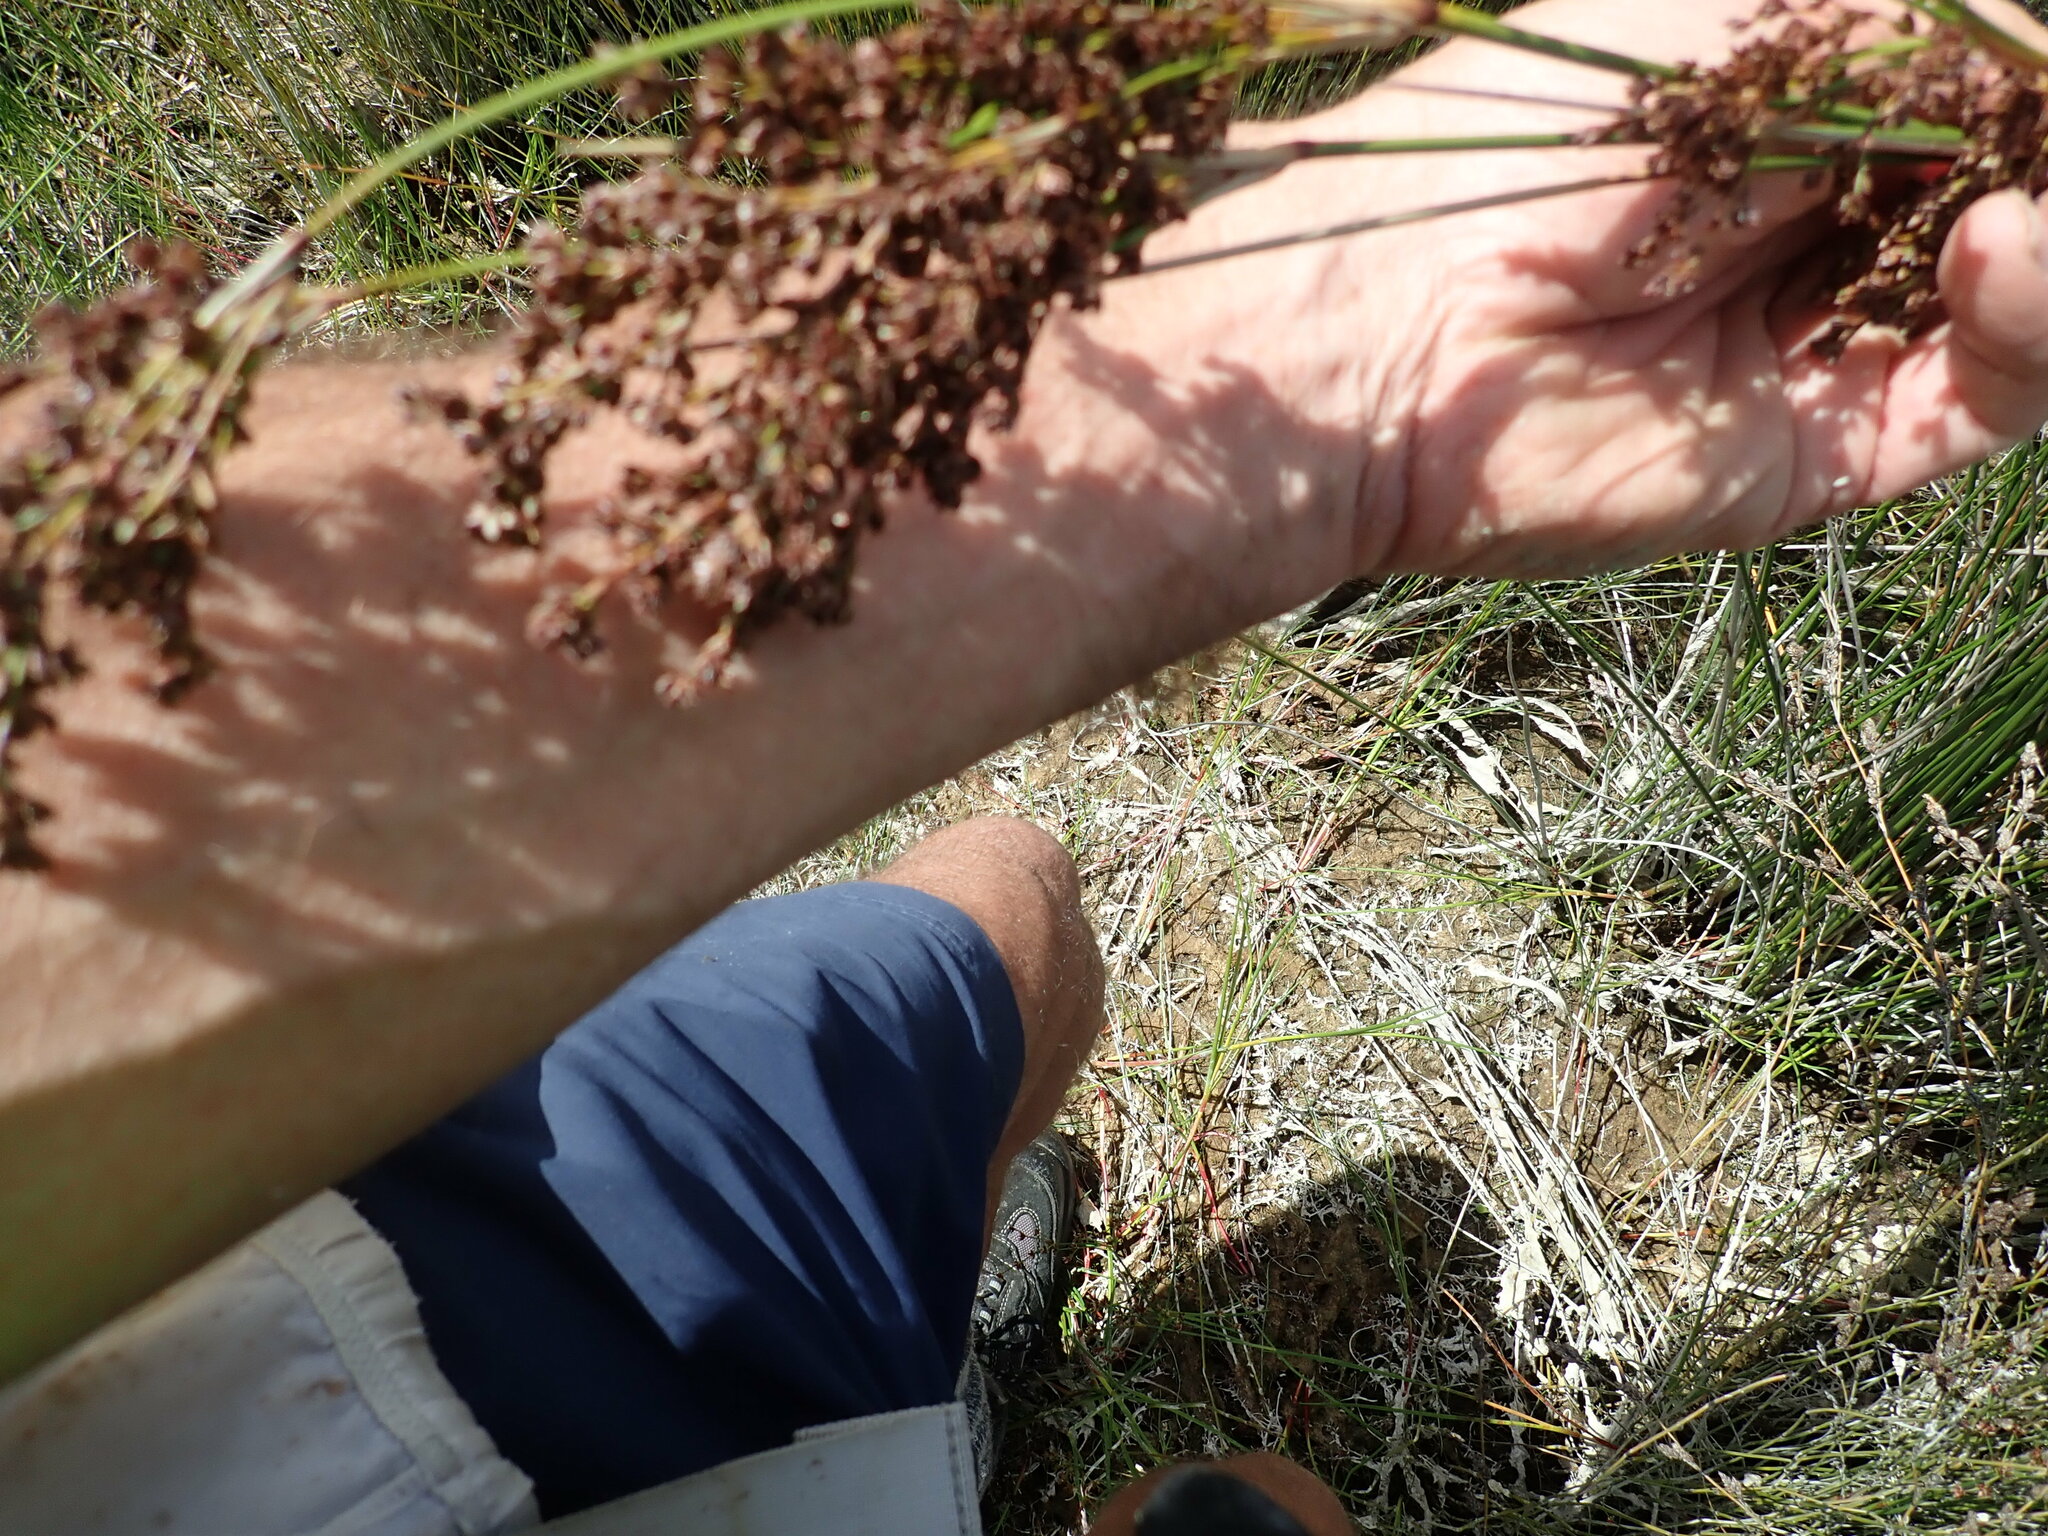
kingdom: Plantae
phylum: Tracheophyta
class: Liliopsida
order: Poales
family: Juncaceae
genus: Juncus
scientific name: Juncus kraussii
